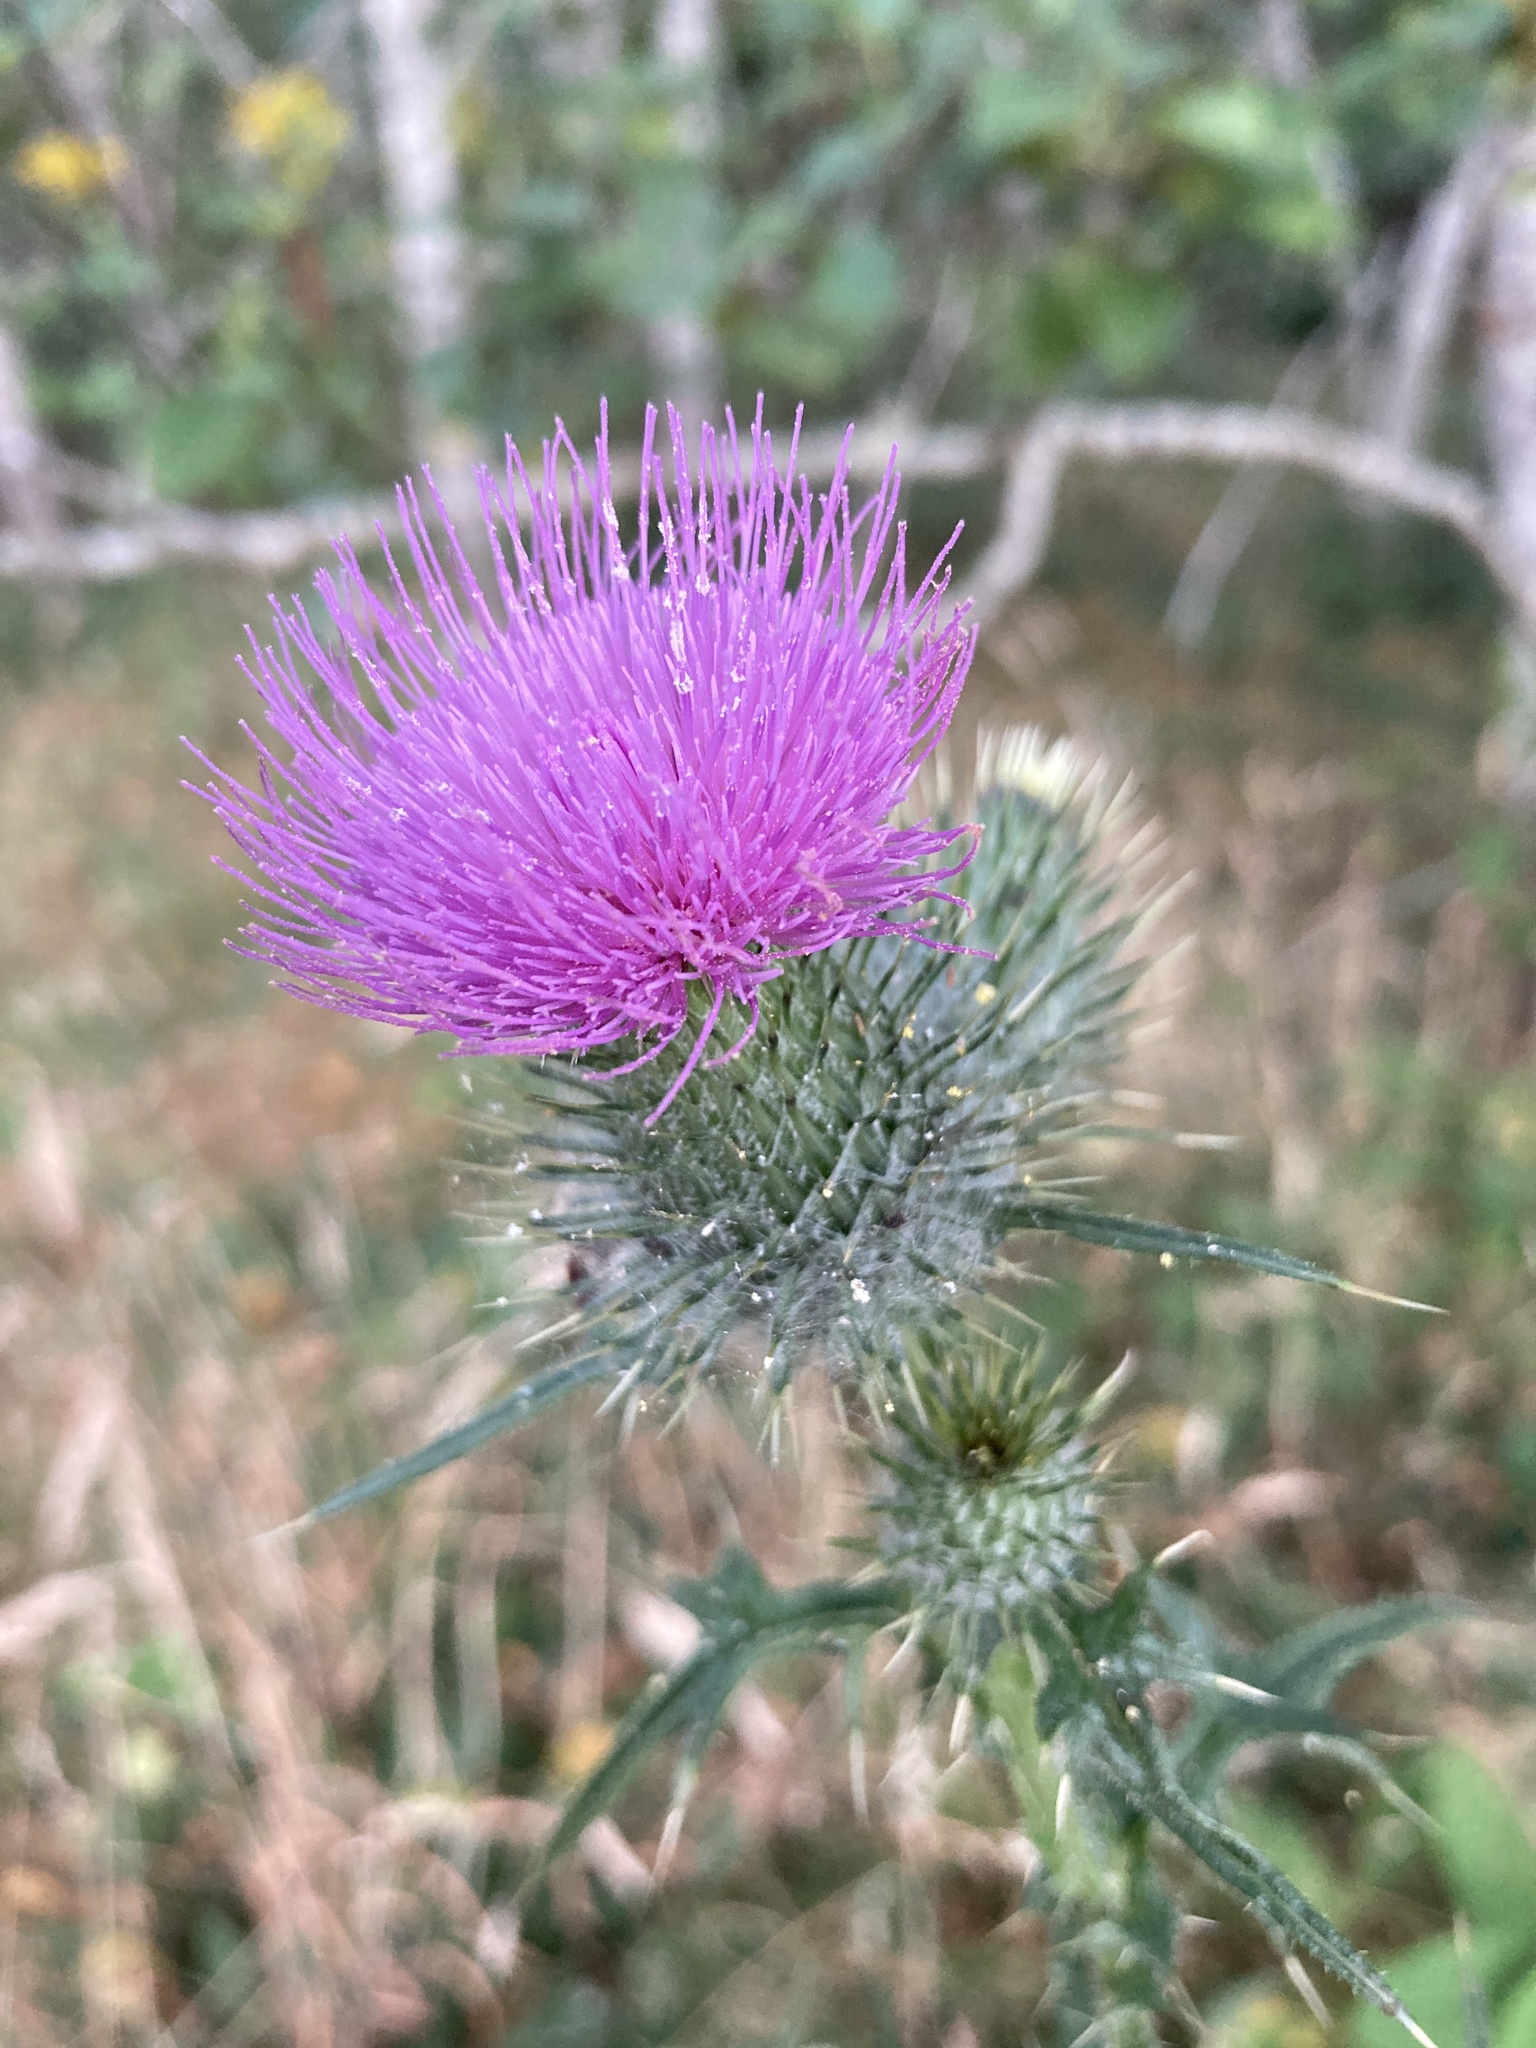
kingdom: Plantae
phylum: Tracheophyta
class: Magnoliopsida
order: Asterales
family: Asteraceae
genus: Cirsium
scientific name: Cirsium vulgare
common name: Bull thistle
